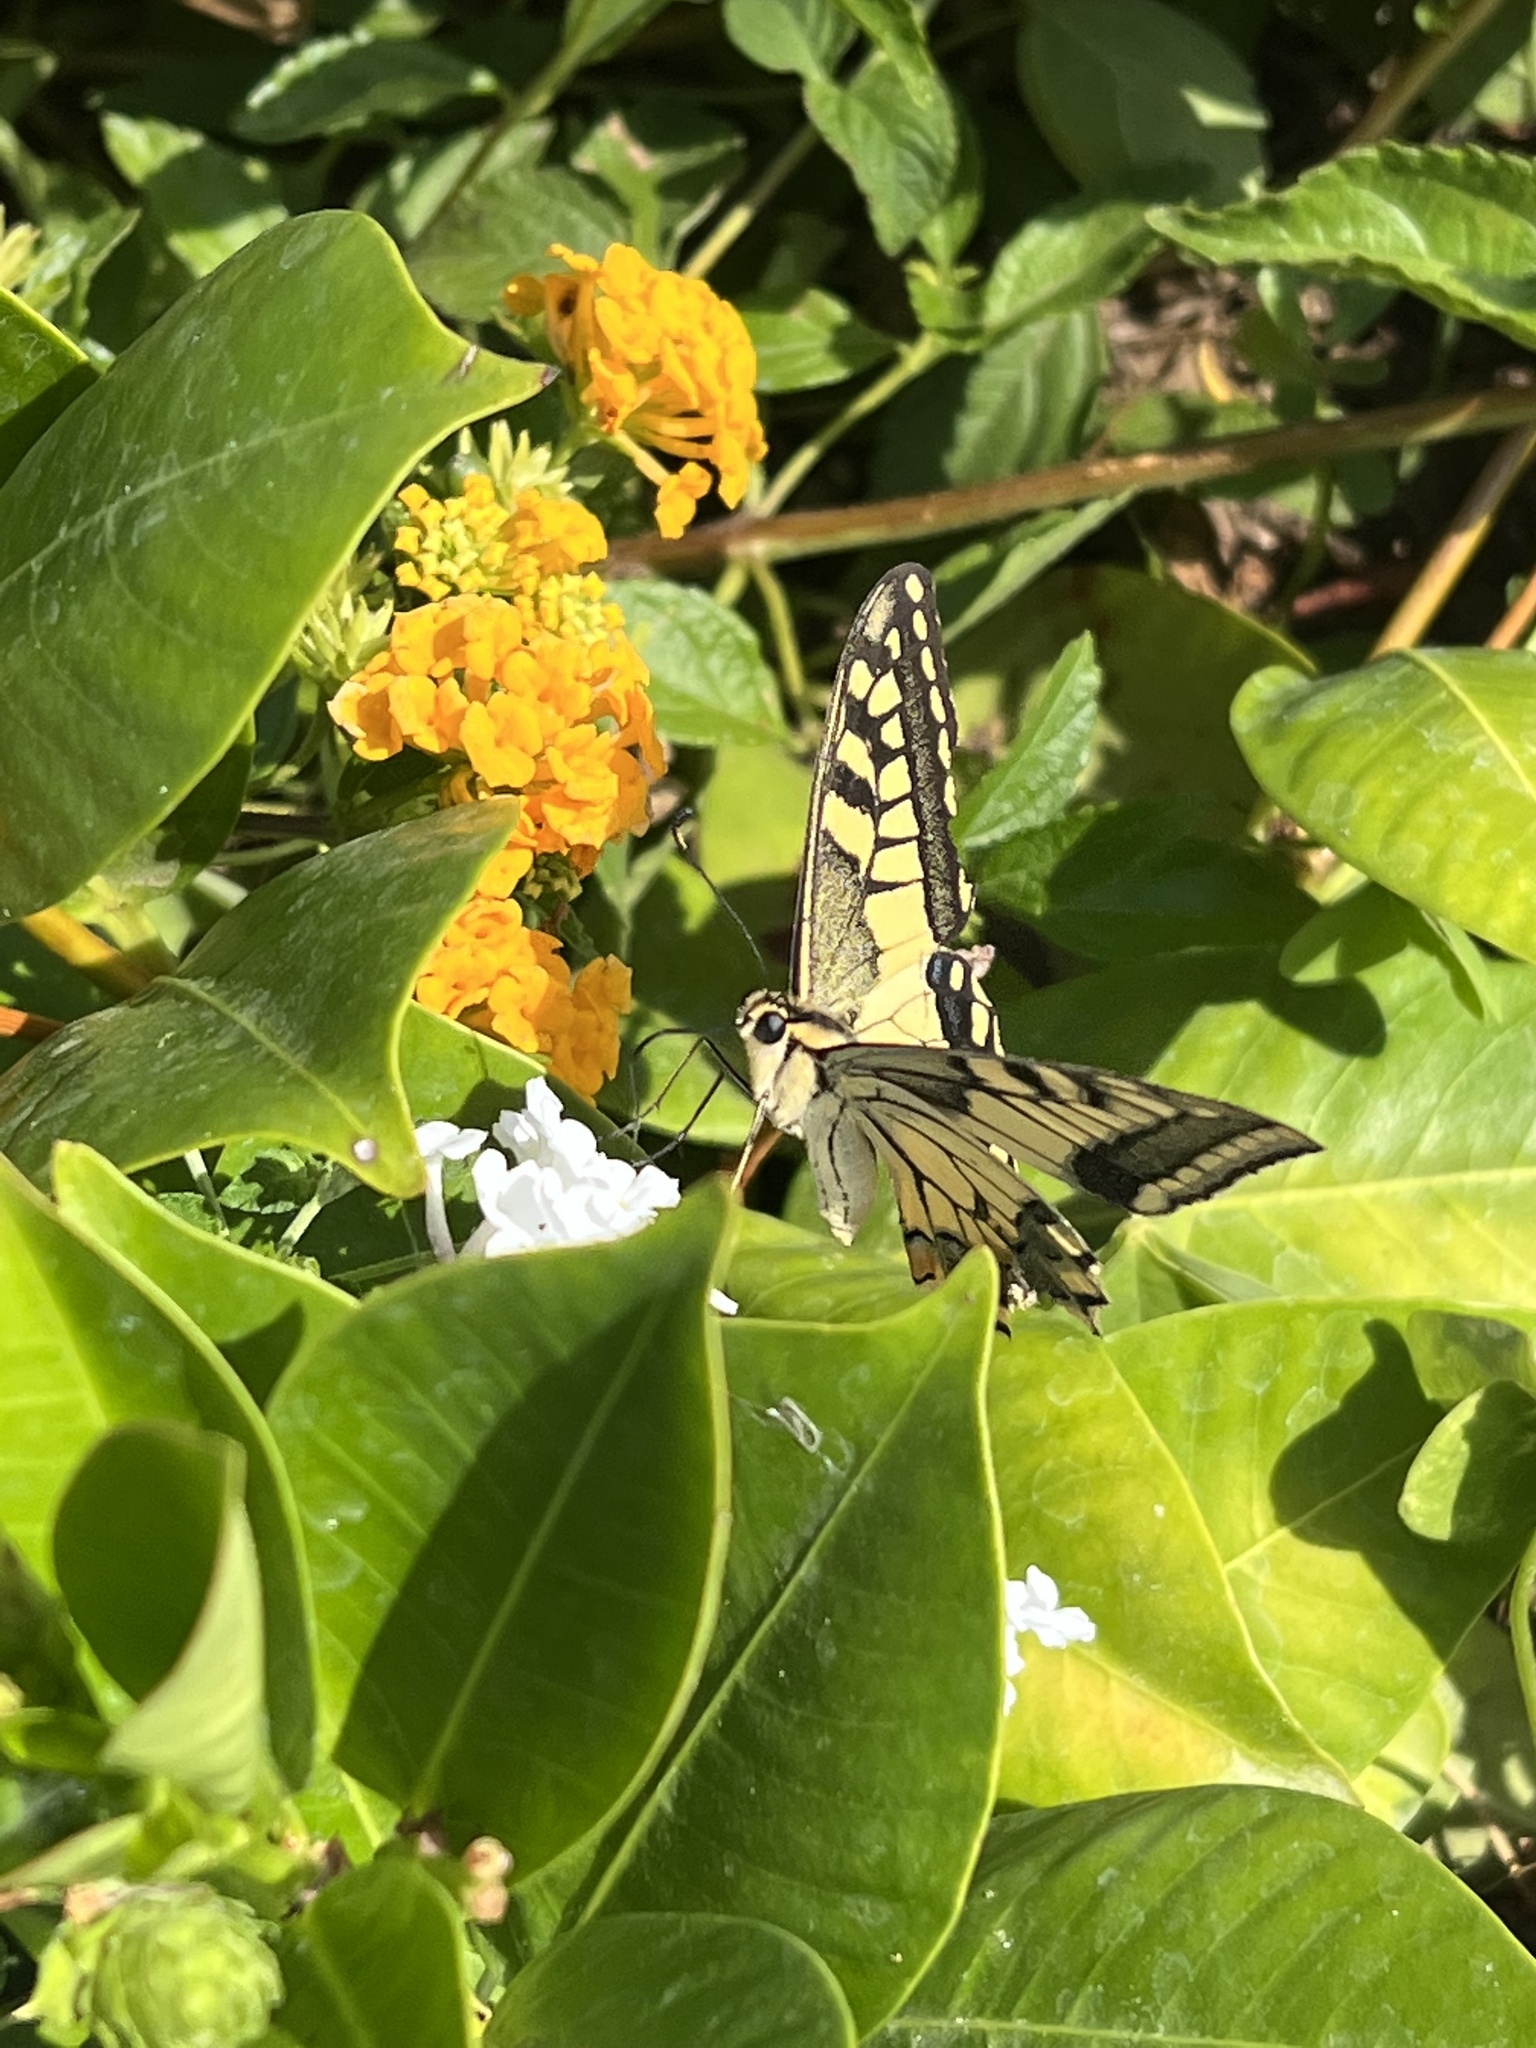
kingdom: Animalia
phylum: Arthropoda
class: Insecta
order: Lepidoptera
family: Papilionidae
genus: Papilio
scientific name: Papilio machaon
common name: Swallowtail
